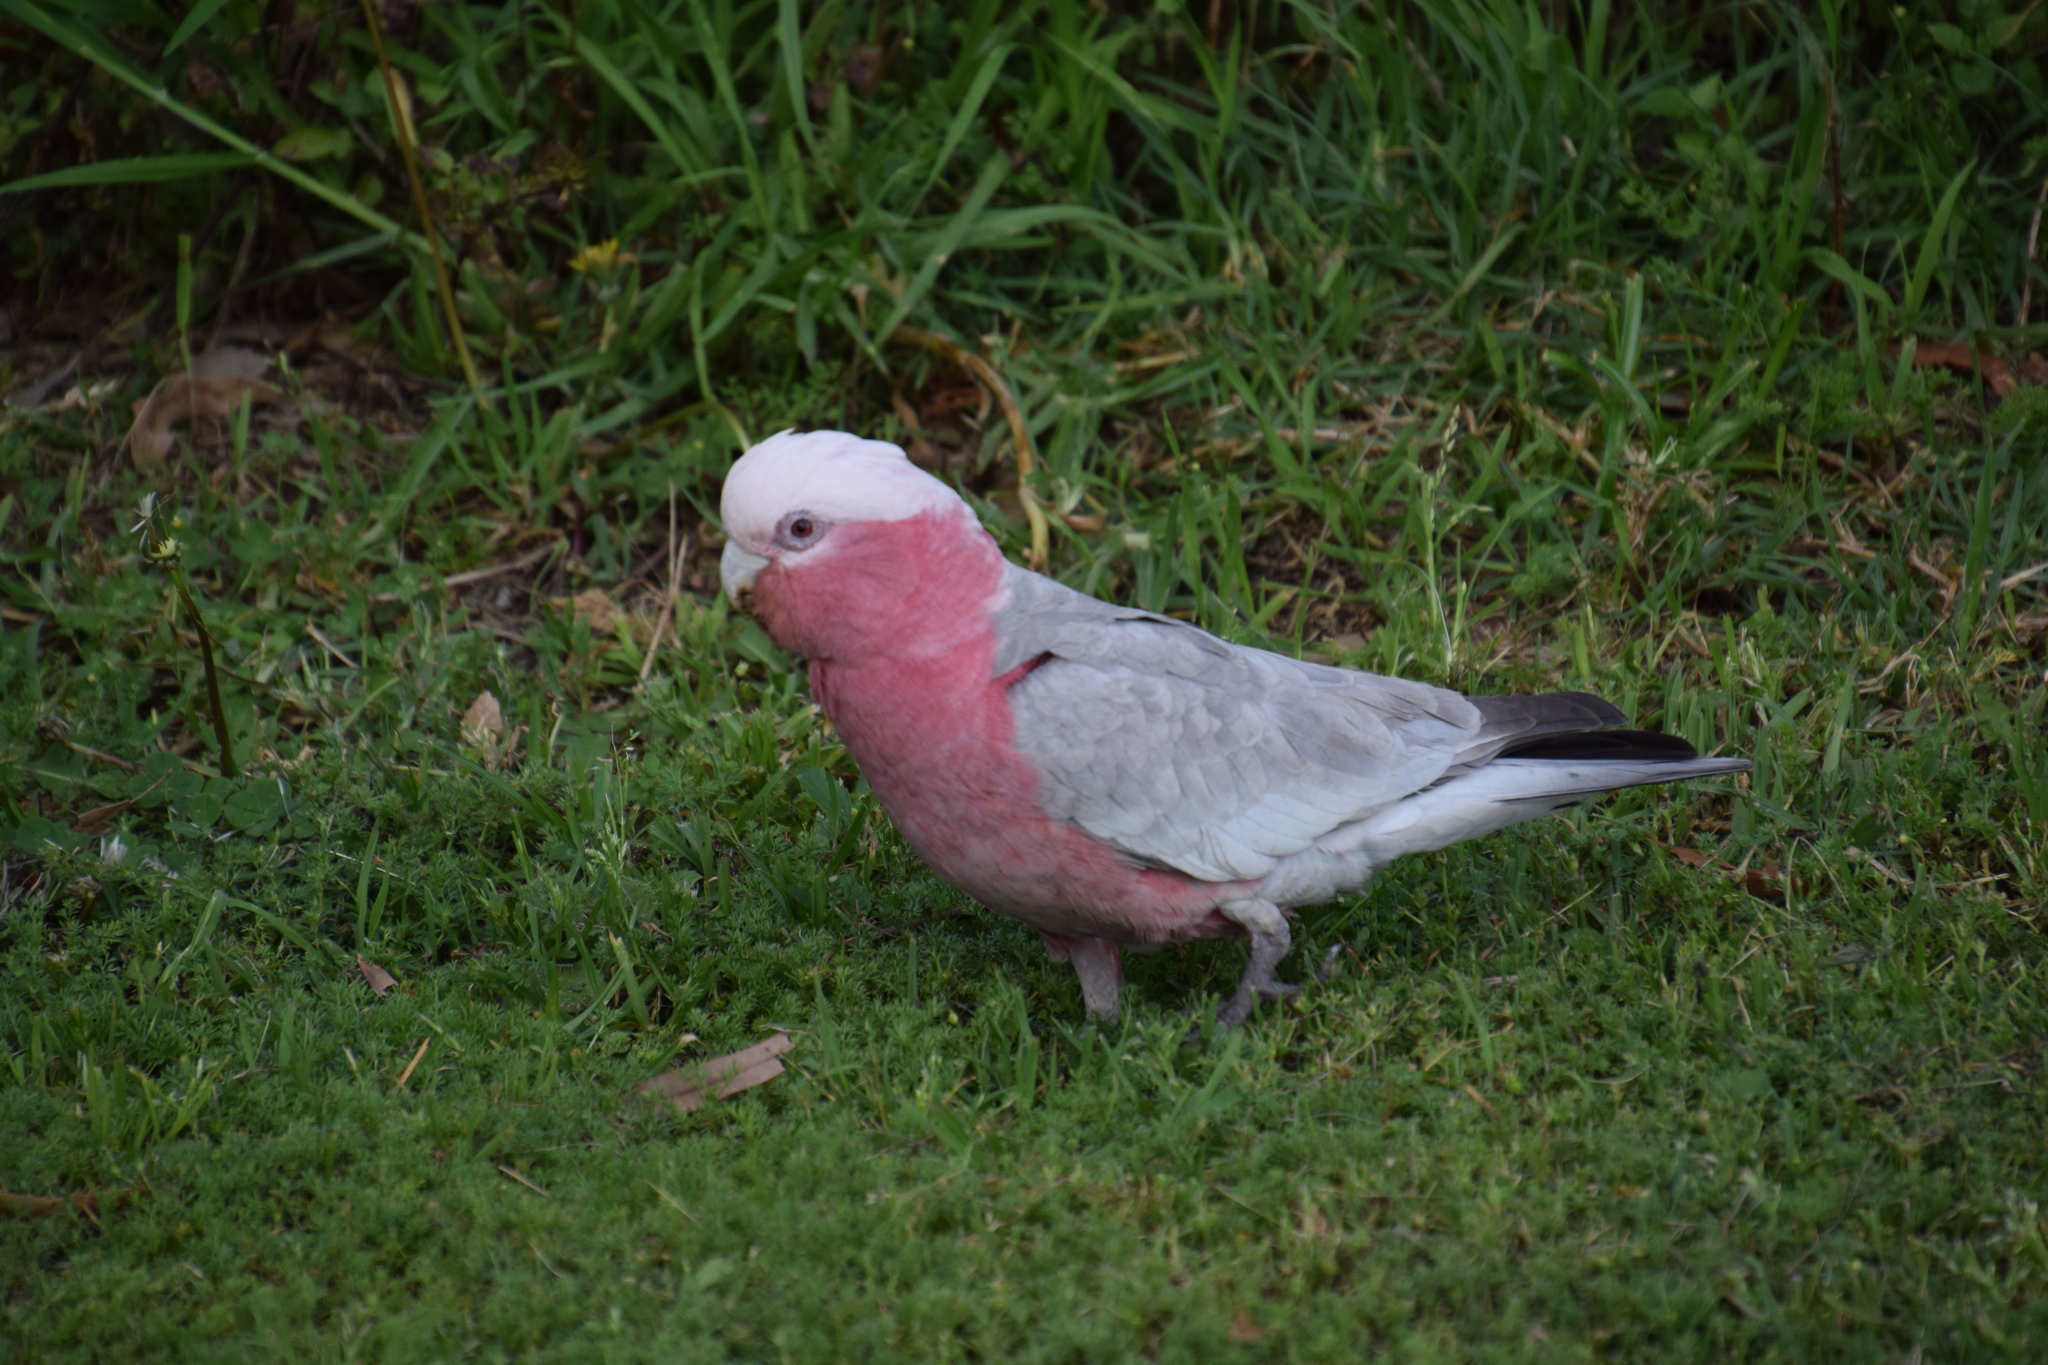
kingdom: Animalia
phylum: Chordata
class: Aves
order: Psittaciformes
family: Psittacidae
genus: Eolophus
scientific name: Eolophus roseicapilla
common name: Galah
